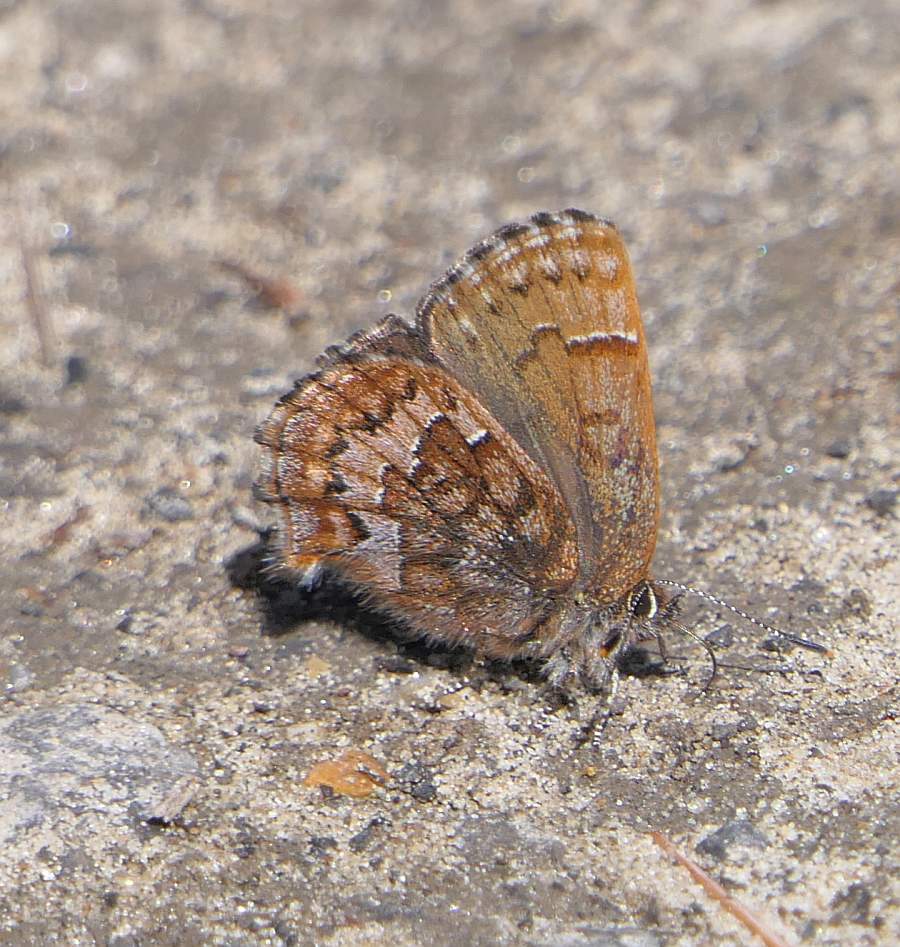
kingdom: Animalia
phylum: Arthropoda
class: Insecta
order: Lepidoptera
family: Lycaenidae
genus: Incisalia
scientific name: Incisalia niphon
